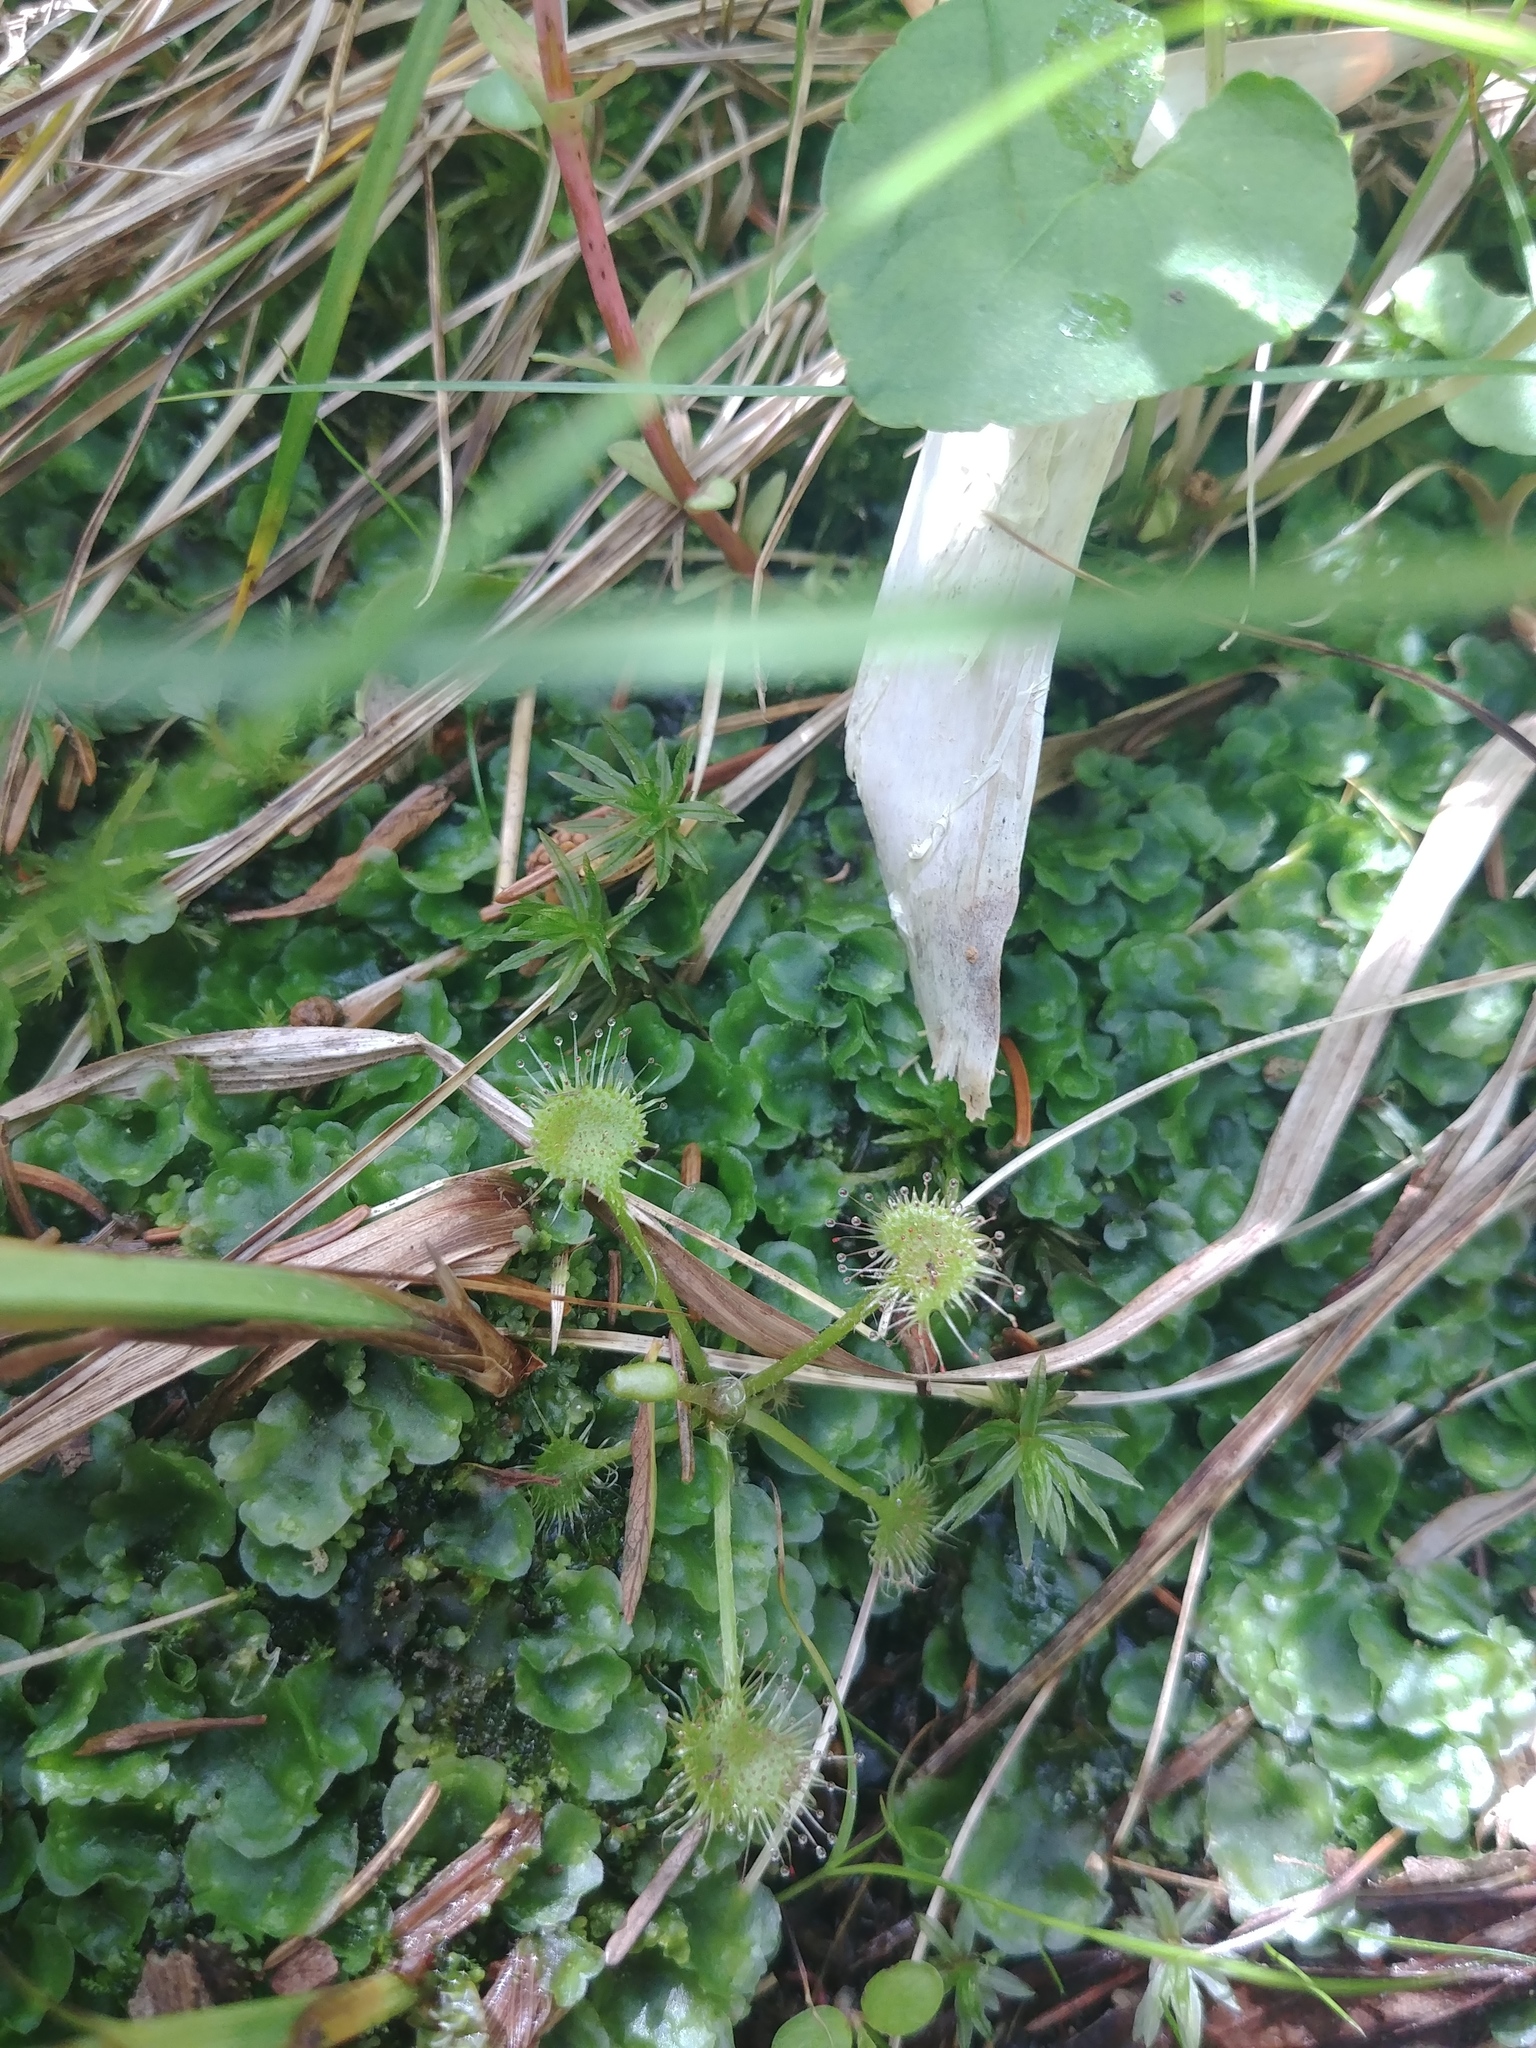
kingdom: Plantae
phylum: Tracheophyta
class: Magnoliopsida
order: Caryophyllales
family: Droseraceae
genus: Drosera
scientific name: Drosera rotundifolia
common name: Round-leaved sundew
